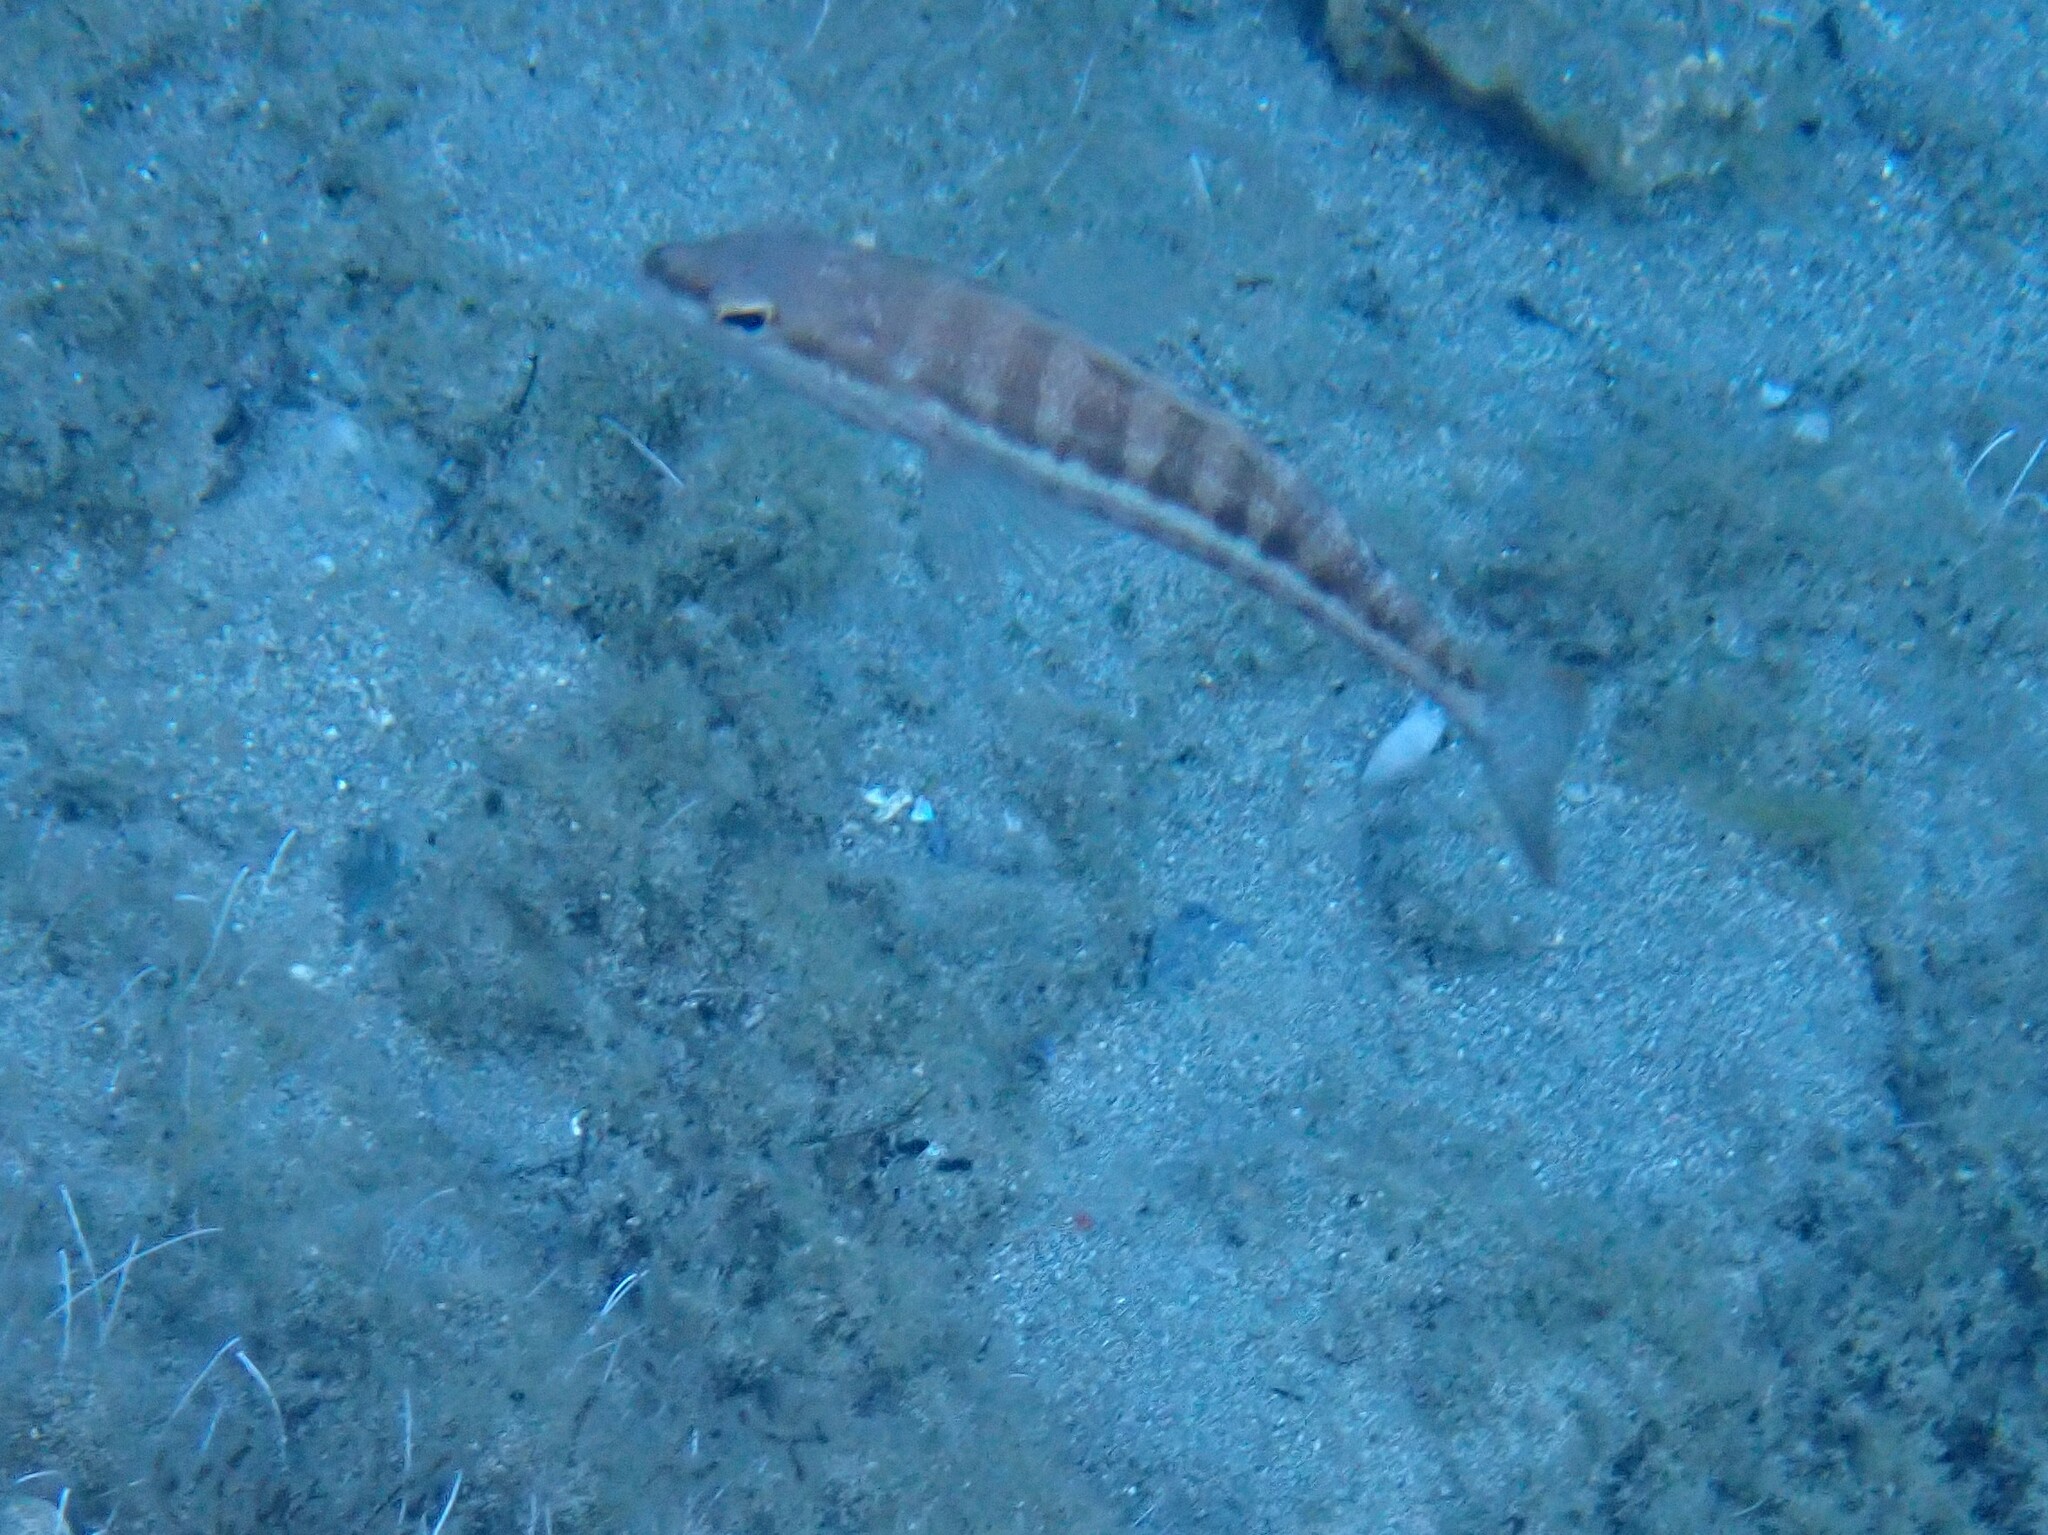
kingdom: Animalia
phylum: Chordata
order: Perciformes
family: Serranidae
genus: Serranus
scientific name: Serranus cabrilla
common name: Comber
